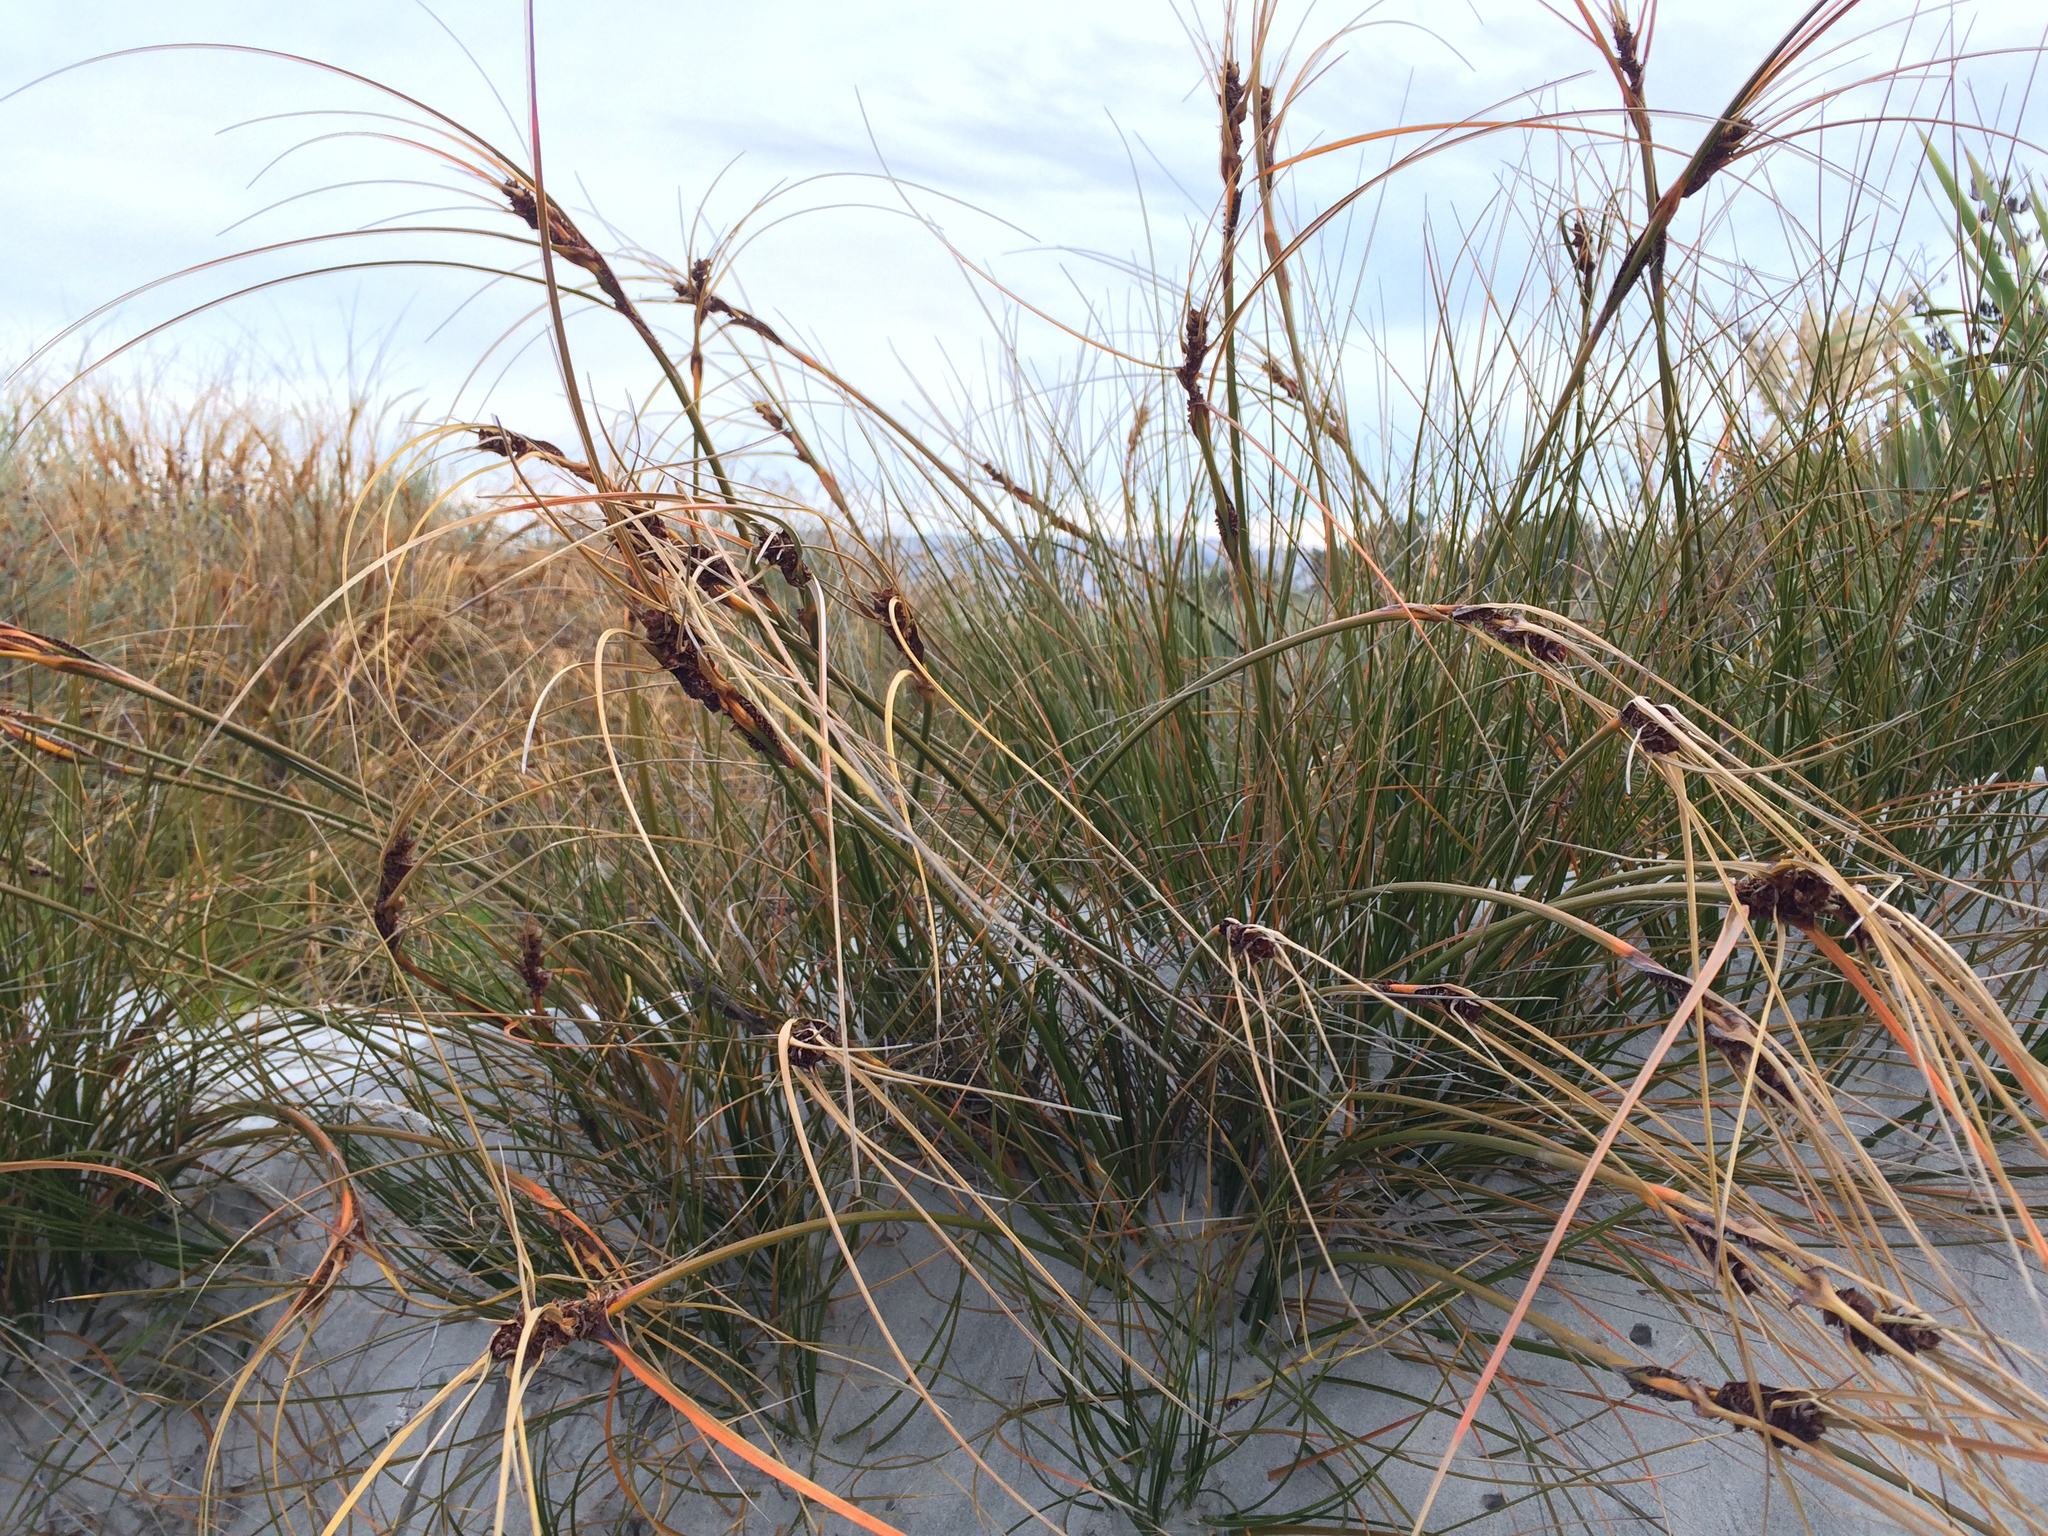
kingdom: Plantae
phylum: Tracheophyta
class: Liliopsida
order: Poales
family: Cyperaceae
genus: Ficinia
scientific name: Ficinia spiralis
